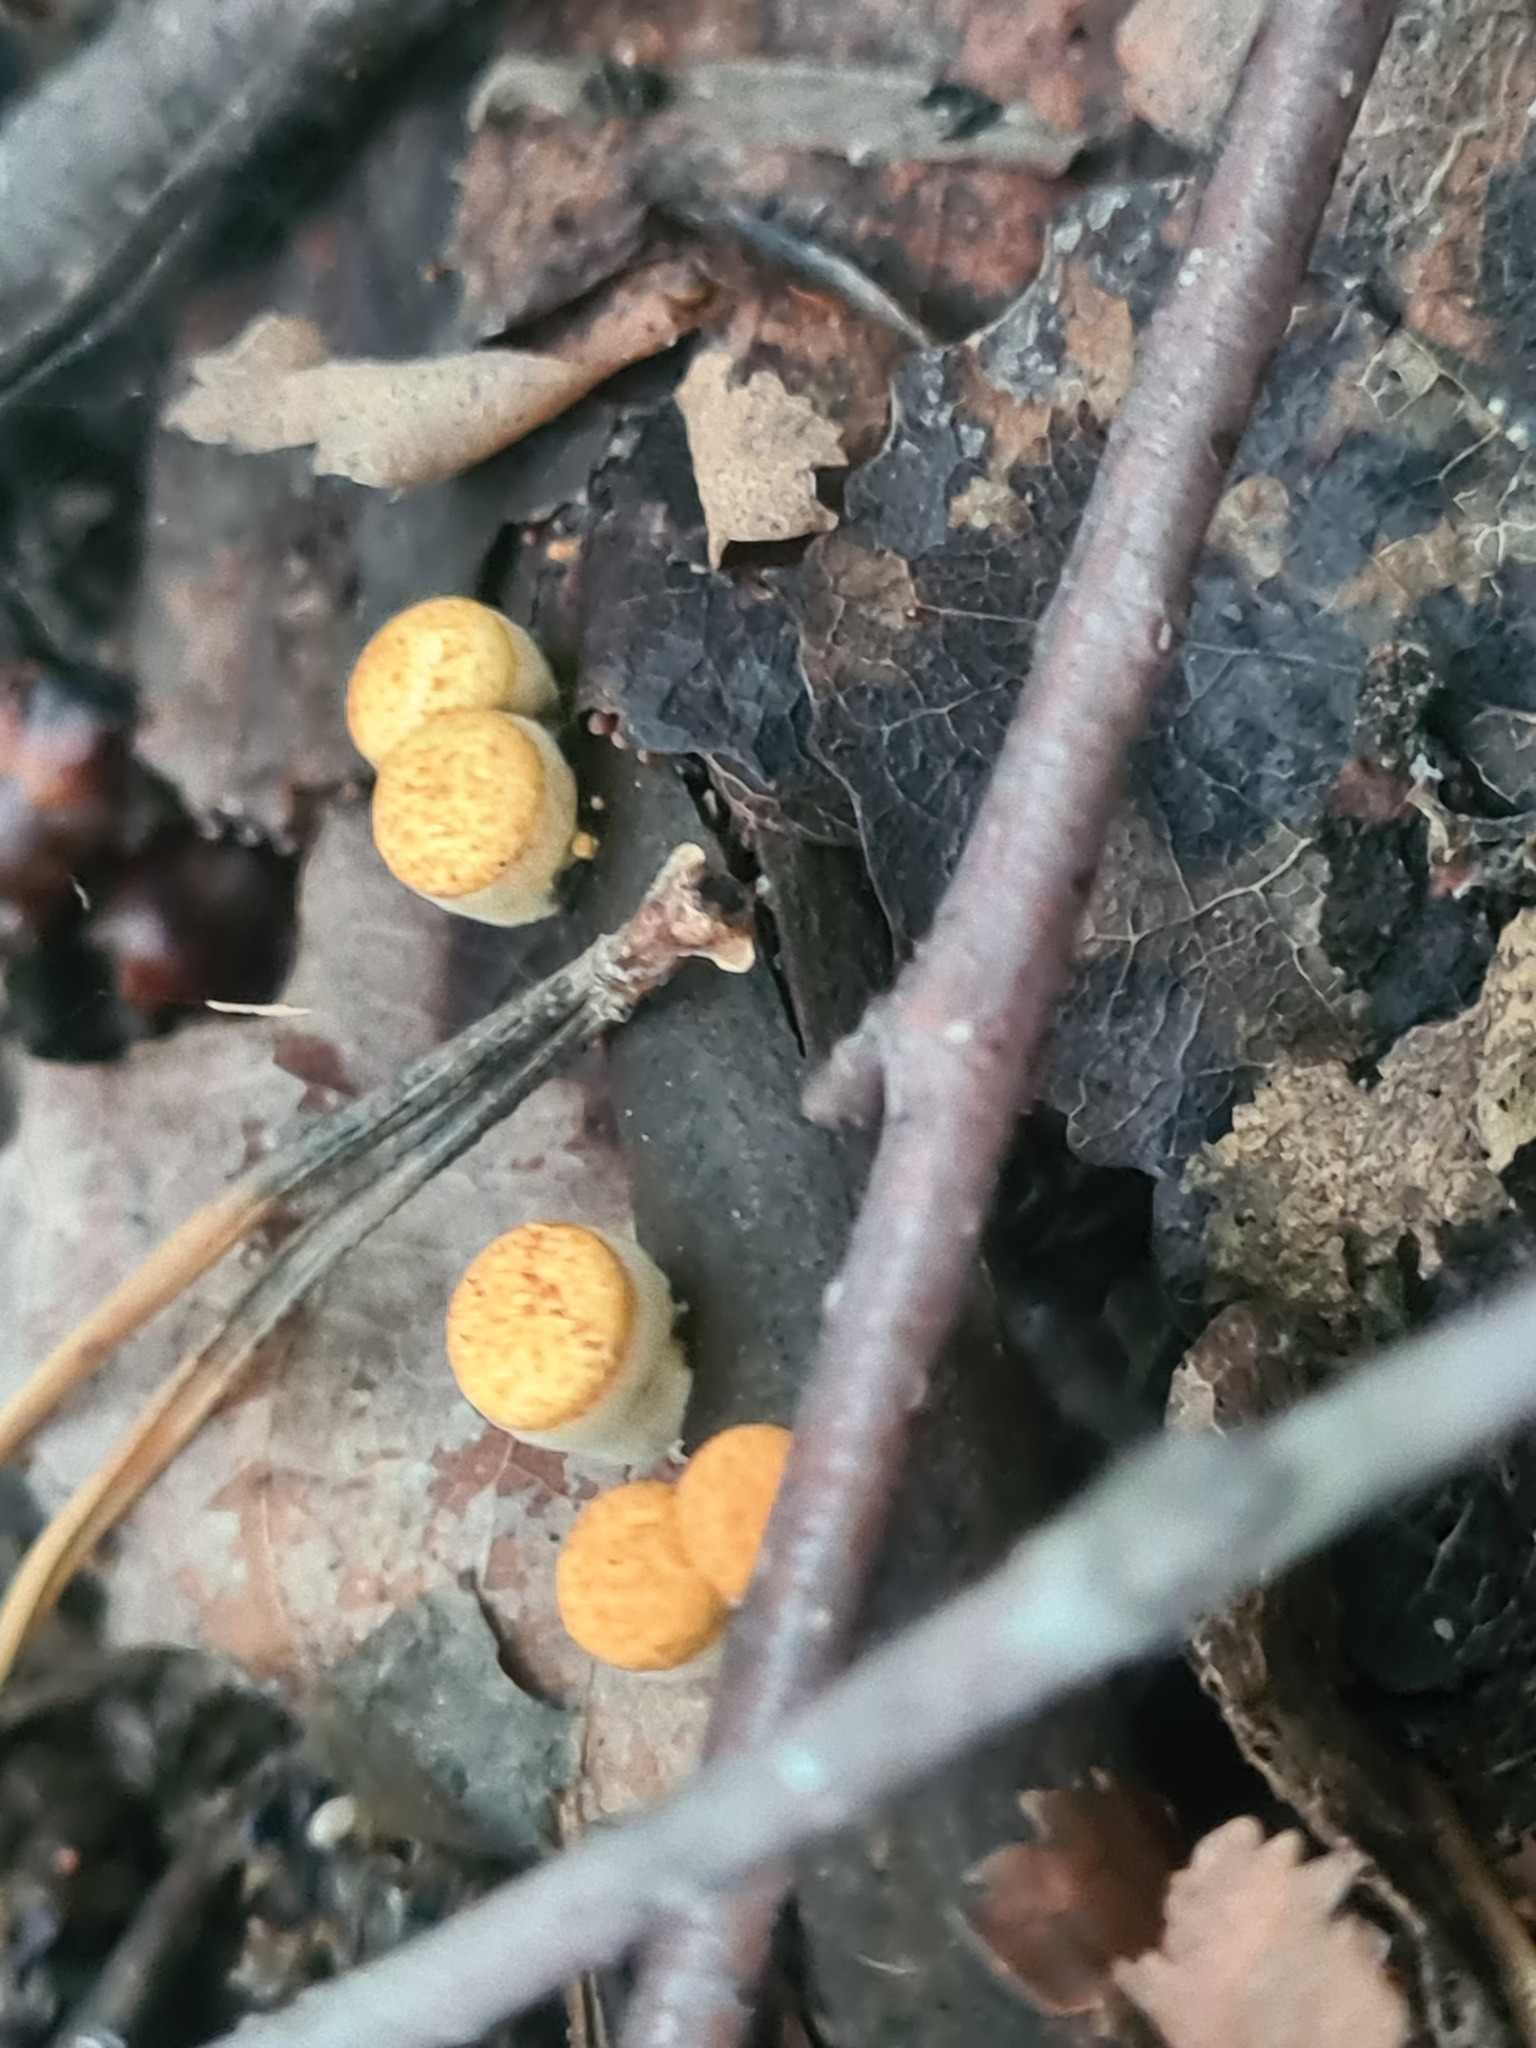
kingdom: Fungi
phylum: Basidiomycota
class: Agaricomycetes
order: Agaricales
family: Nidulariaceae
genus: Crucibulum
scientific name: Crucibulum laeve
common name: Common bird's nest
